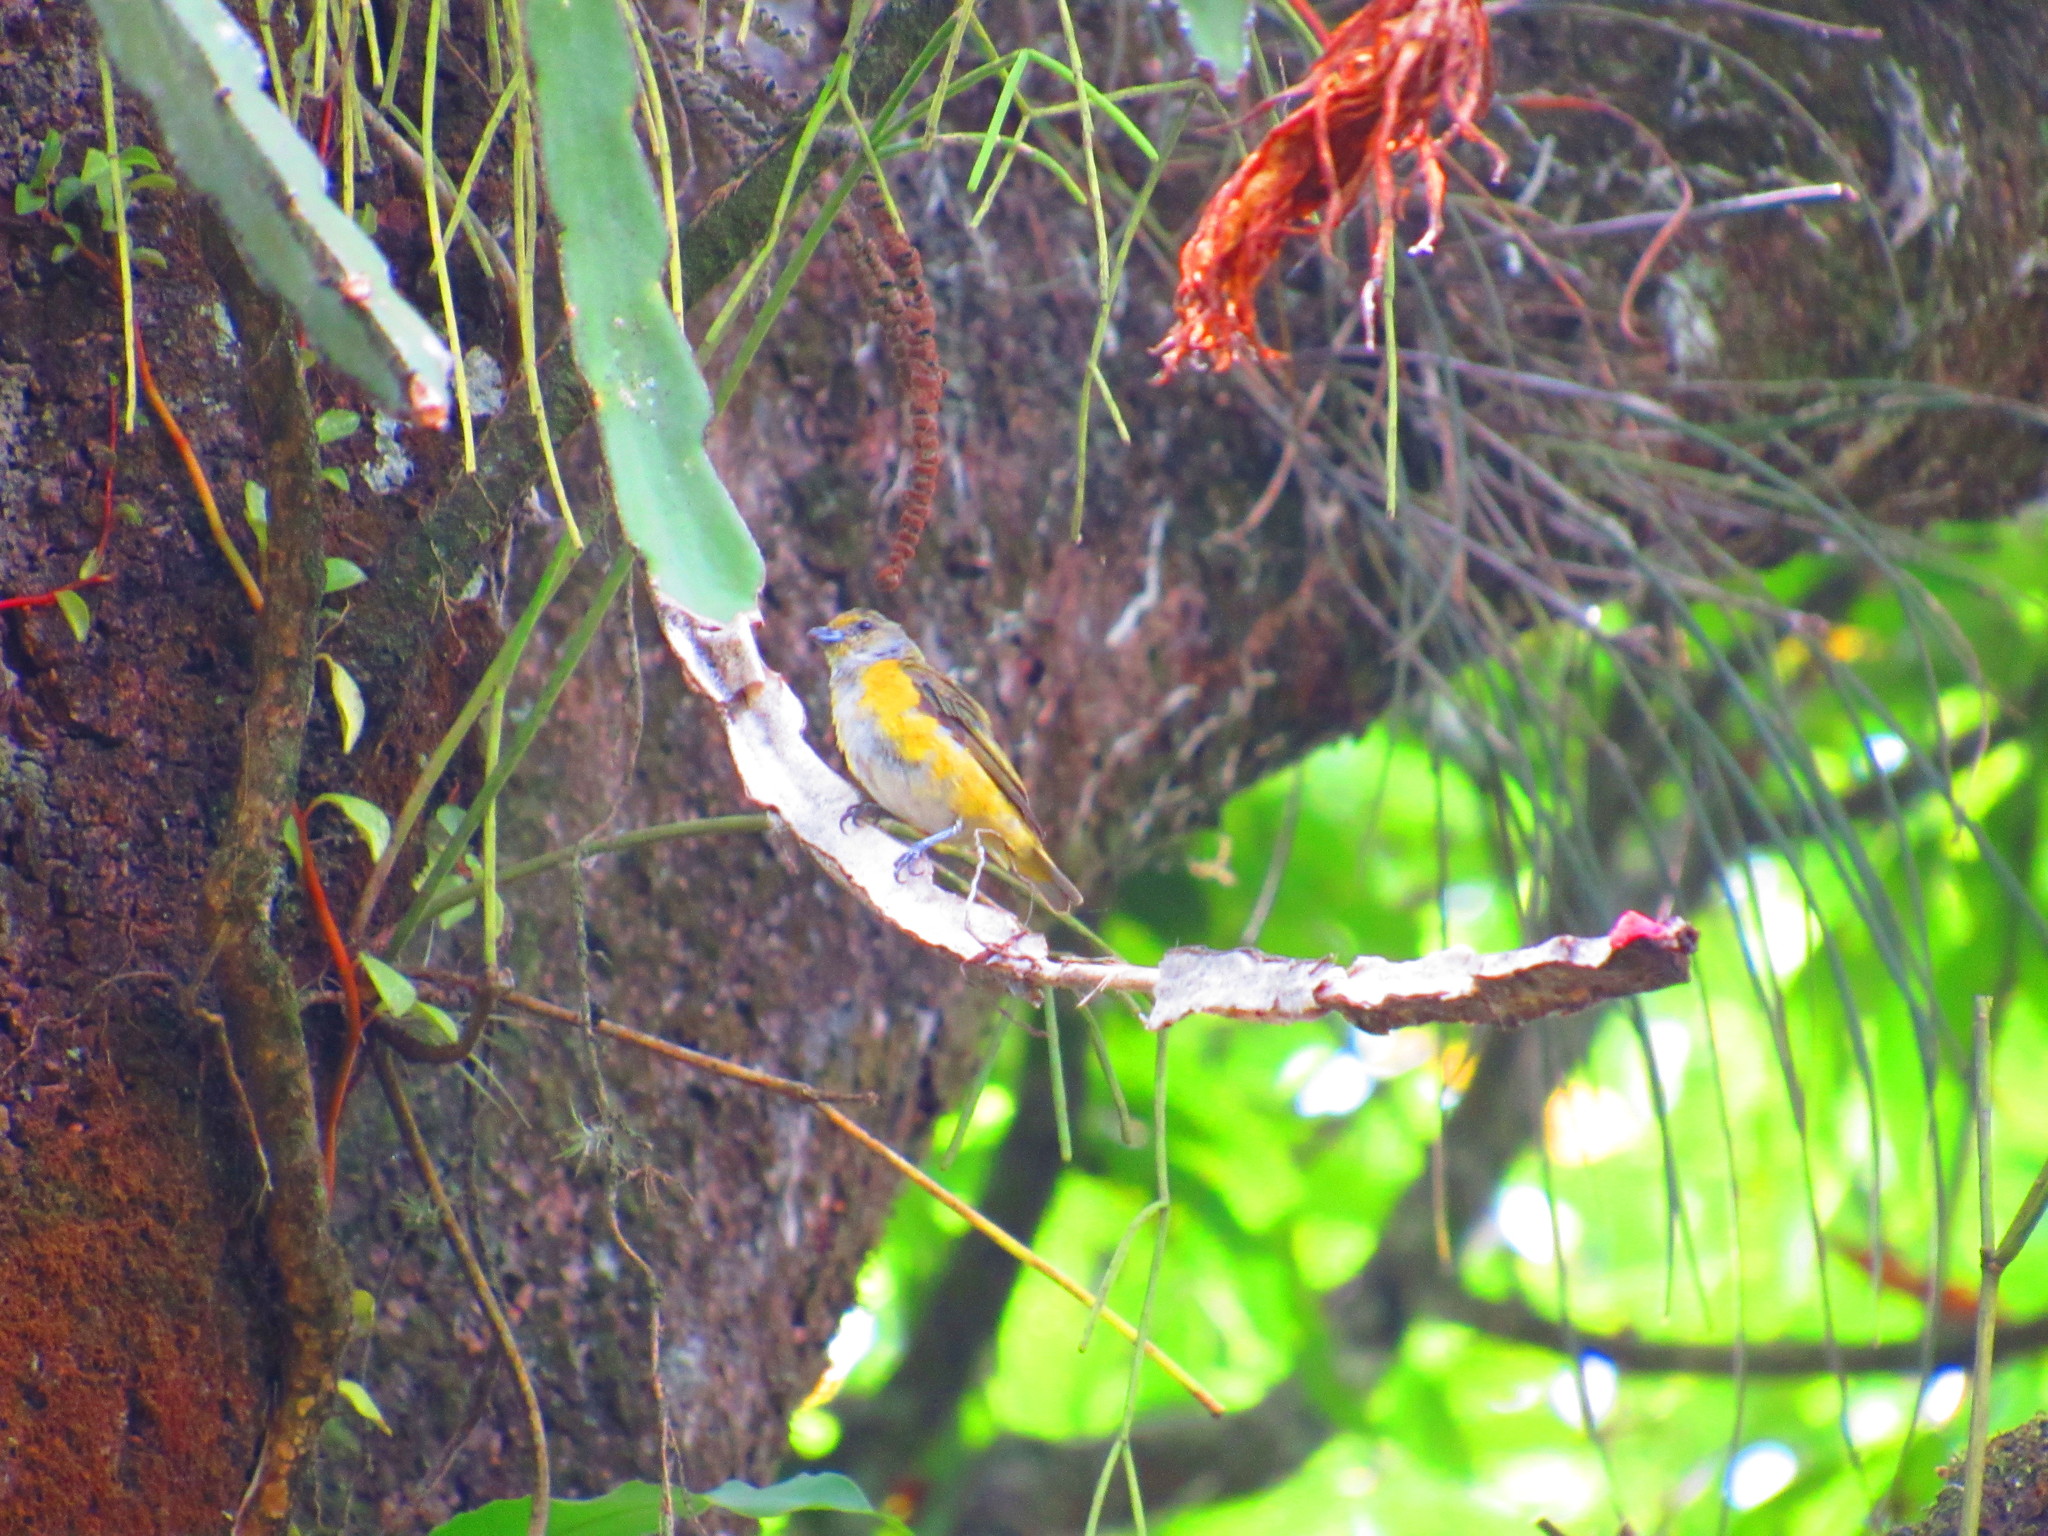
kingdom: Animalia
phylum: Chordata
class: Aves
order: Passeriformes
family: Fringillidae
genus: Euphonia
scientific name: Euphonia hirundinacea
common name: Yellow-throated euphonia
